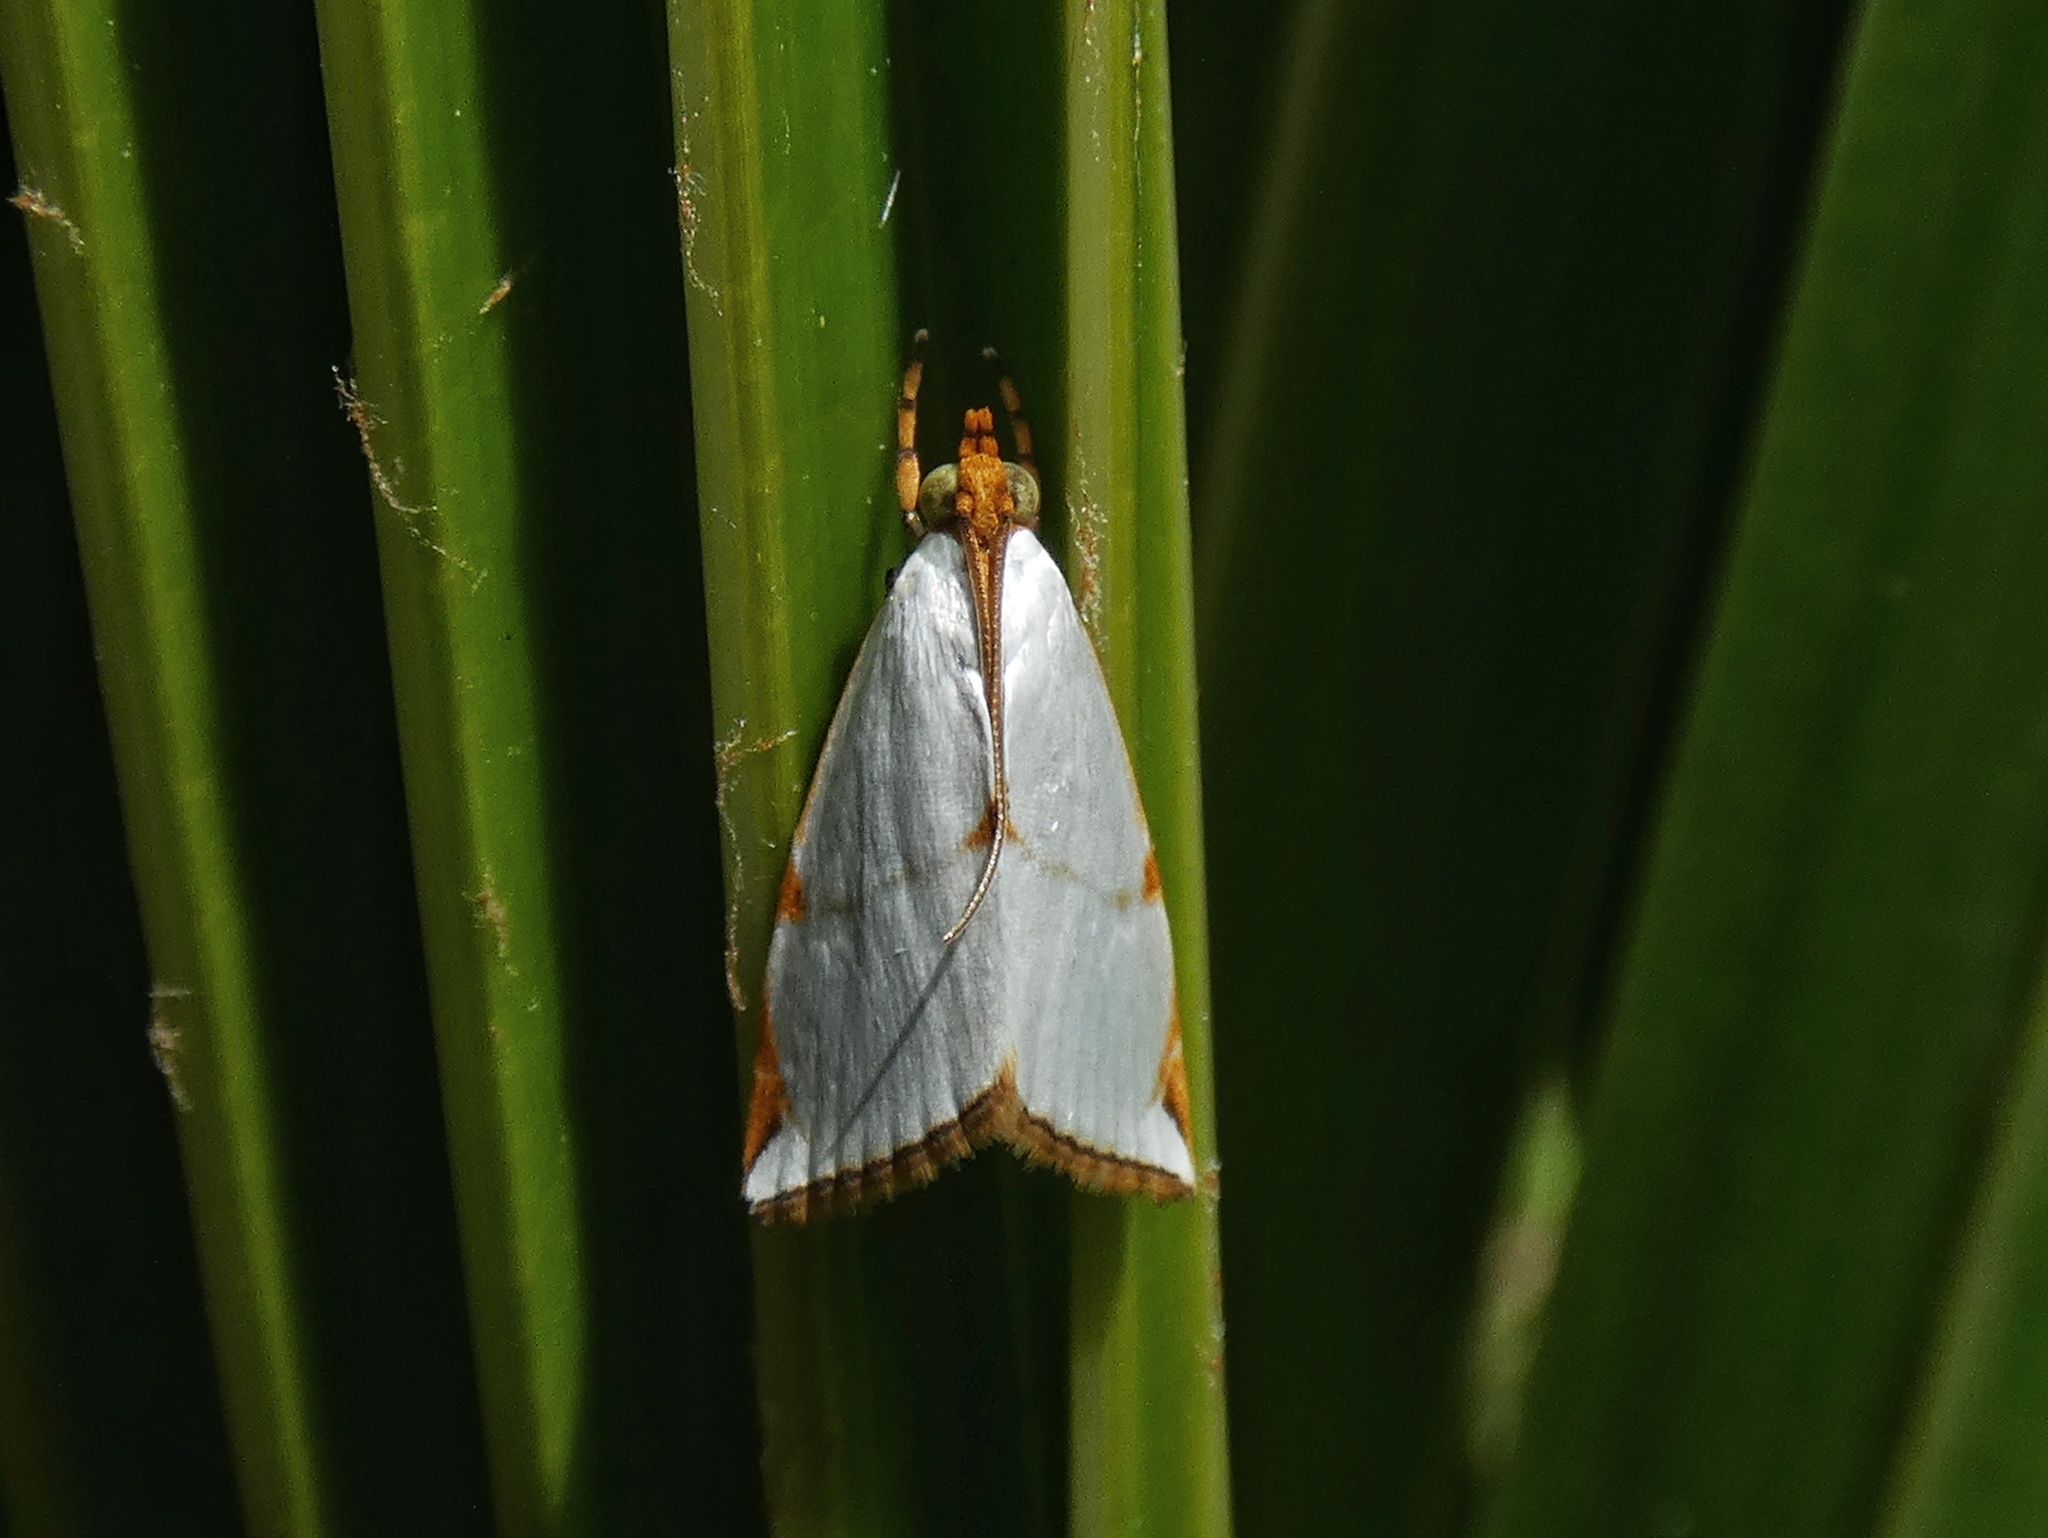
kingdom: Animalia
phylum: Arthropoda
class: Insecta
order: Lepidoptera
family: Crambidae
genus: Argyria
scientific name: Argyria centrifugens
